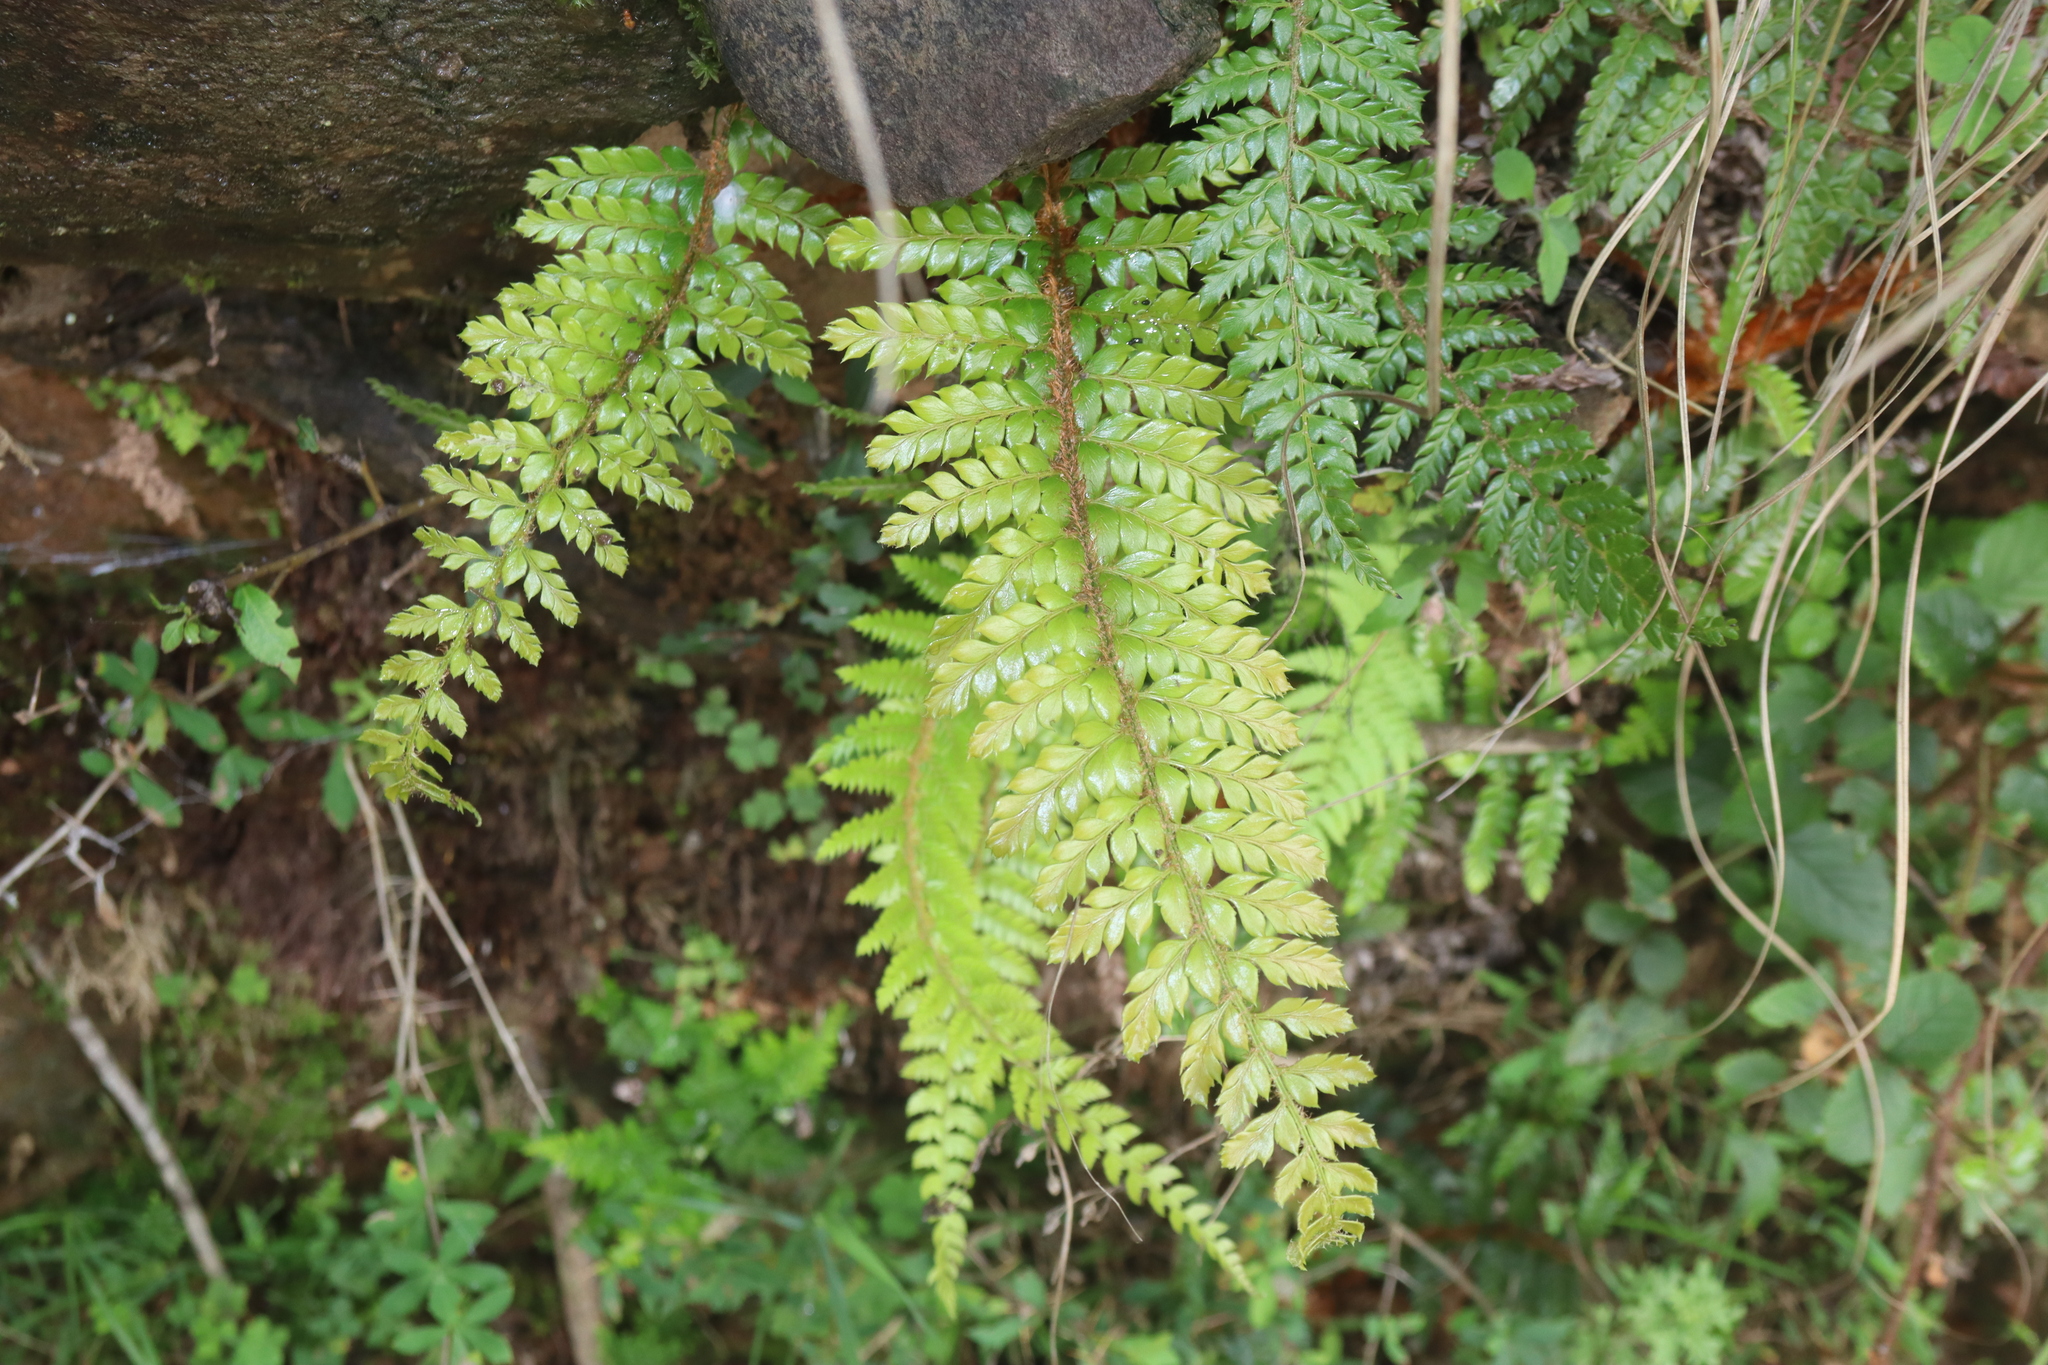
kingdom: Plantae
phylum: Tracheophyta
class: Polypodiopsida
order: Polypodiales
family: Dryopteridaceae
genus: Polystichum
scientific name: Polystichum neolobatum
